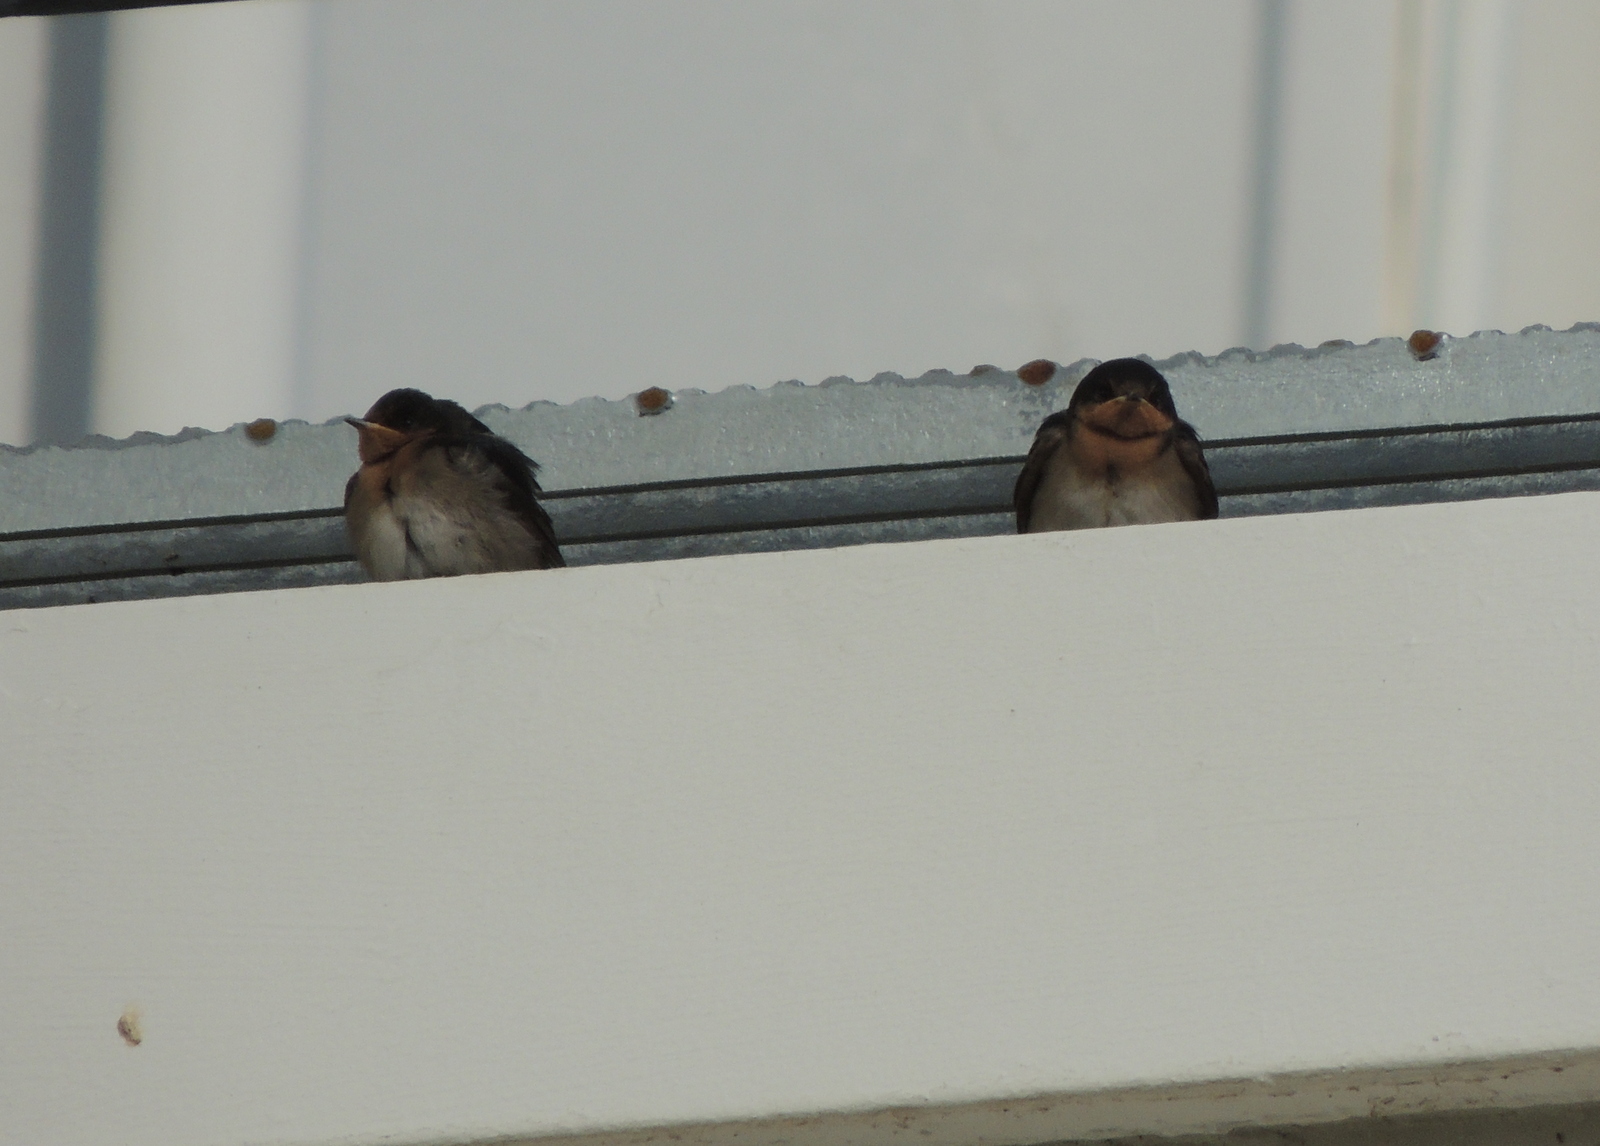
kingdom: Animalia
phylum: Chordata
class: Aves
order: Passeriformes
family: Hirundinidae
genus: Hirundo
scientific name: Hirundo neoxena
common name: Welcome swallow
